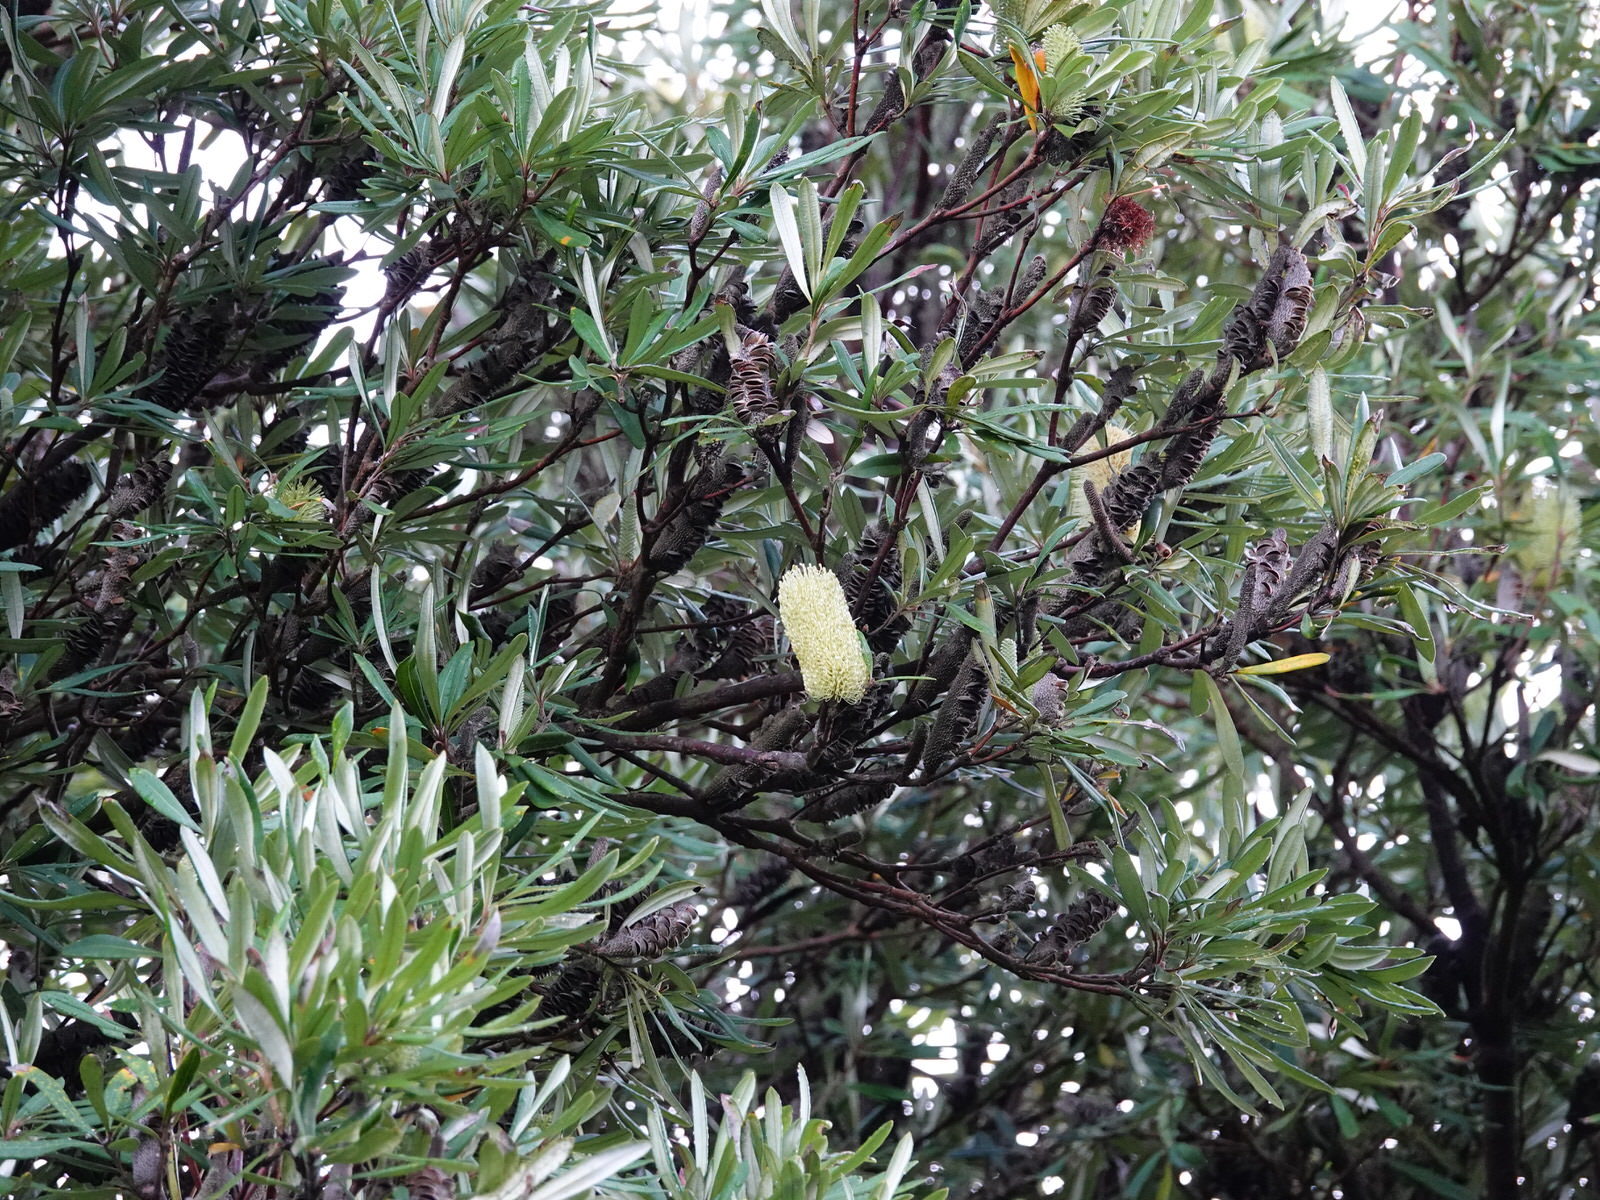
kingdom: Plantae
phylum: Tracheophyta
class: Magnoliopsida
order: Proteales
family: Proteaceae
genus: Banksia
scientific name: Banksia integrifolia
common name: White-honeysuckle
